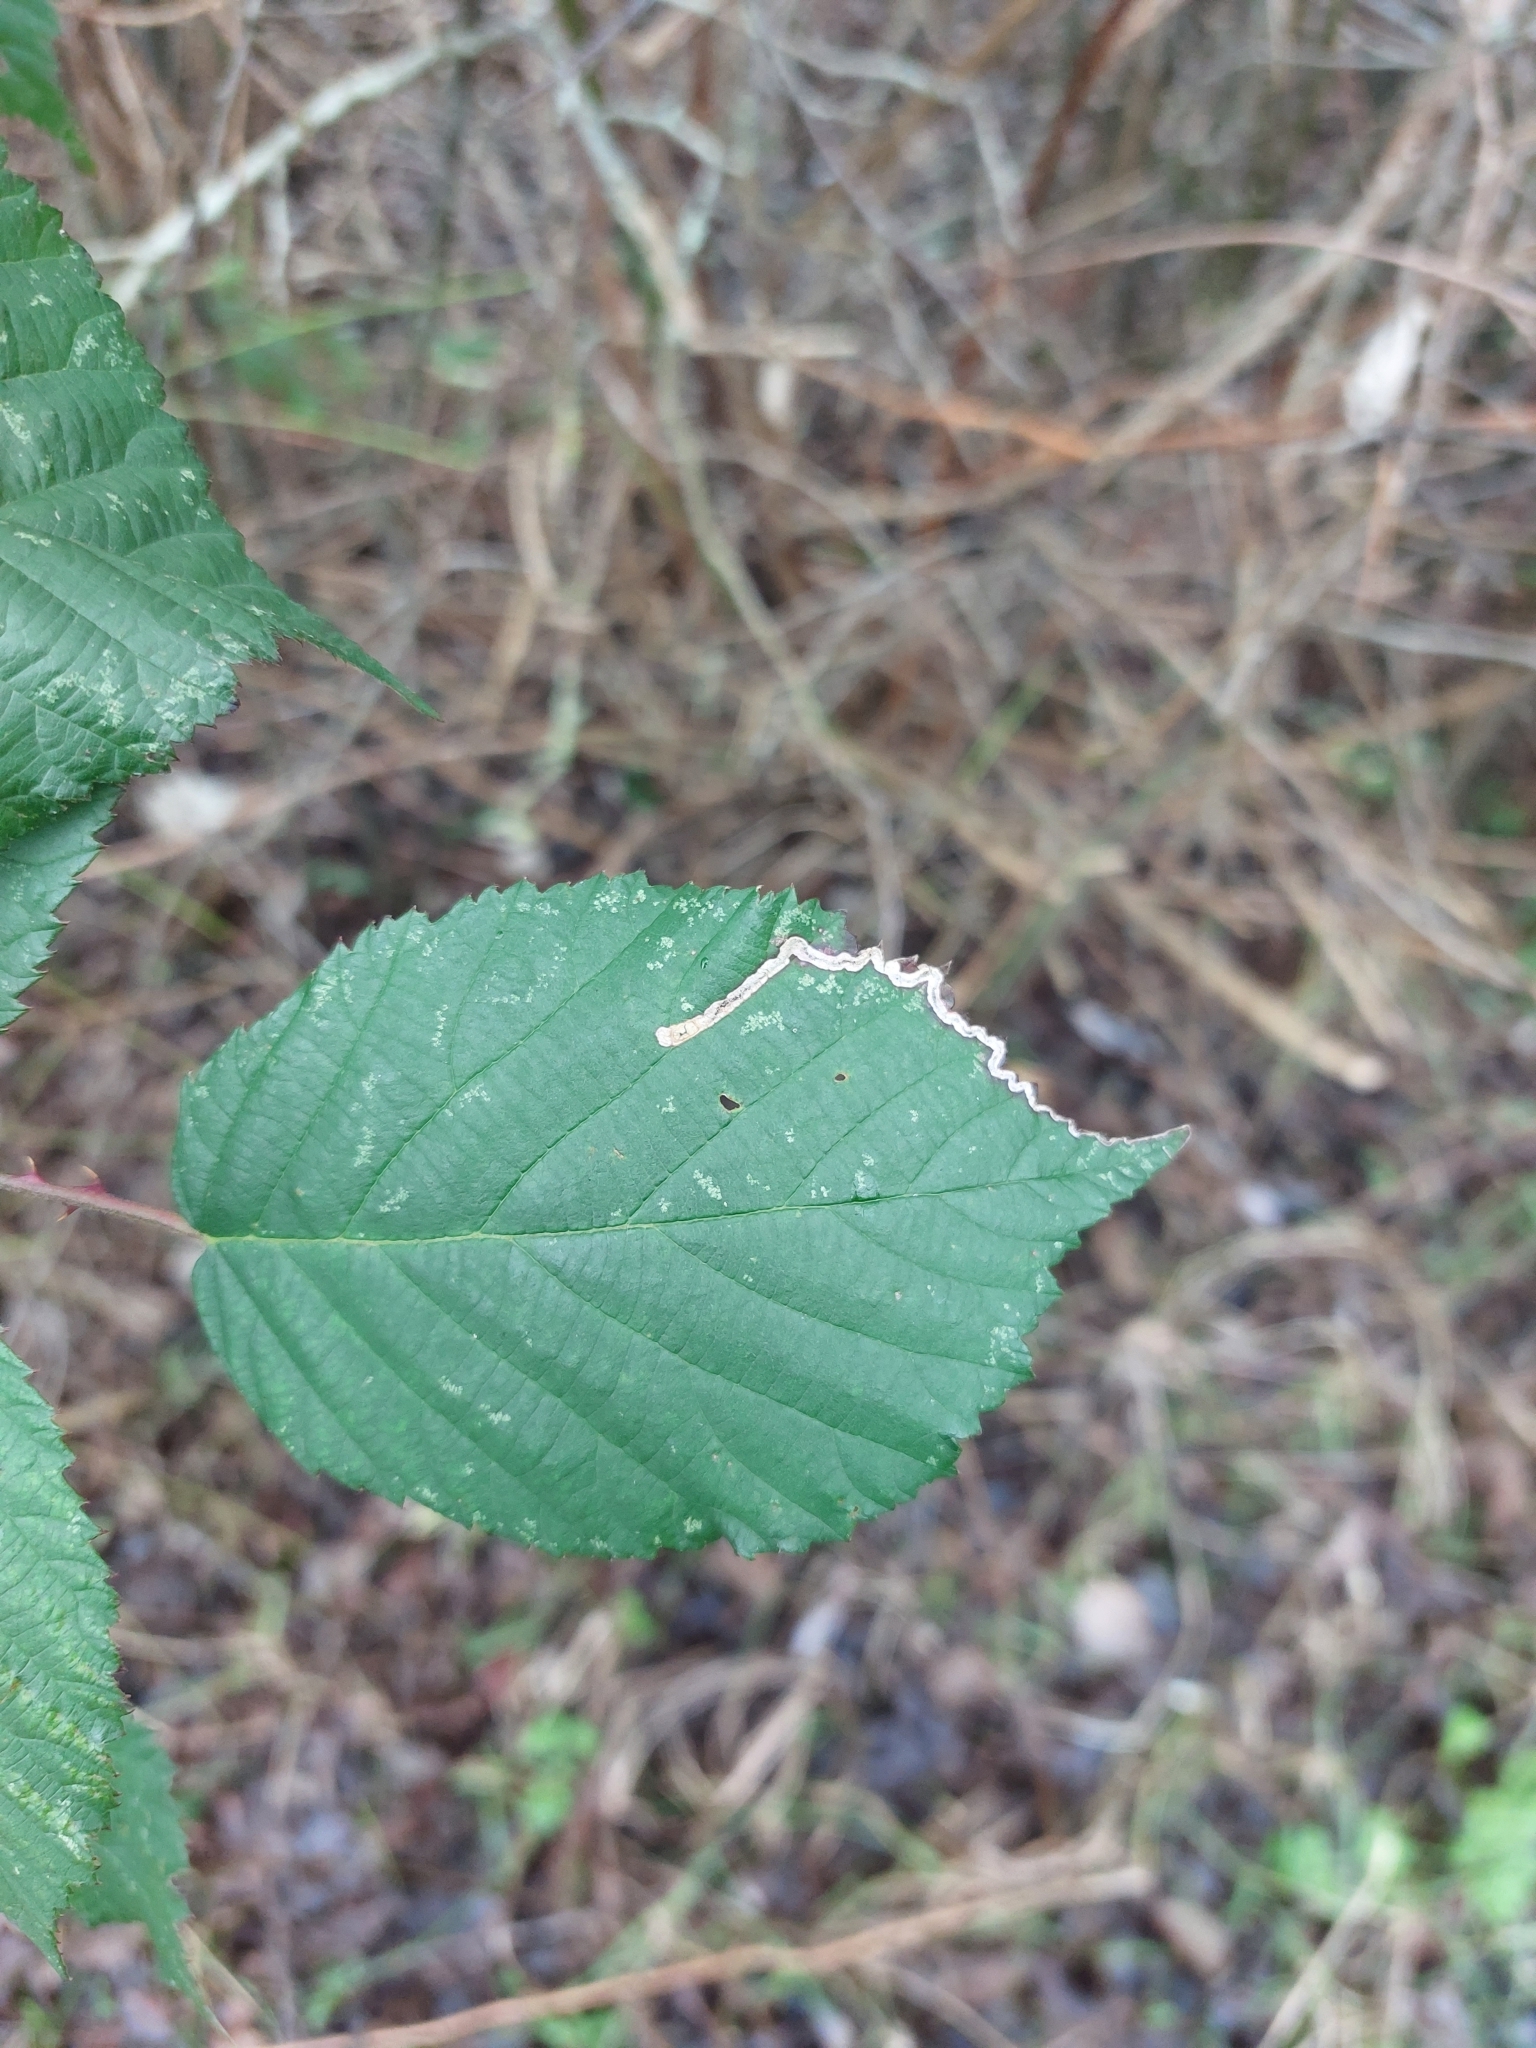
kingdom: Animalia
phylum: Arthropoda
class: Insecta
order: Lepidoptera
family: Nepticulidae
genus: Stigmella
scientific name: Stigmella aurella
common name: Golden pigmy
